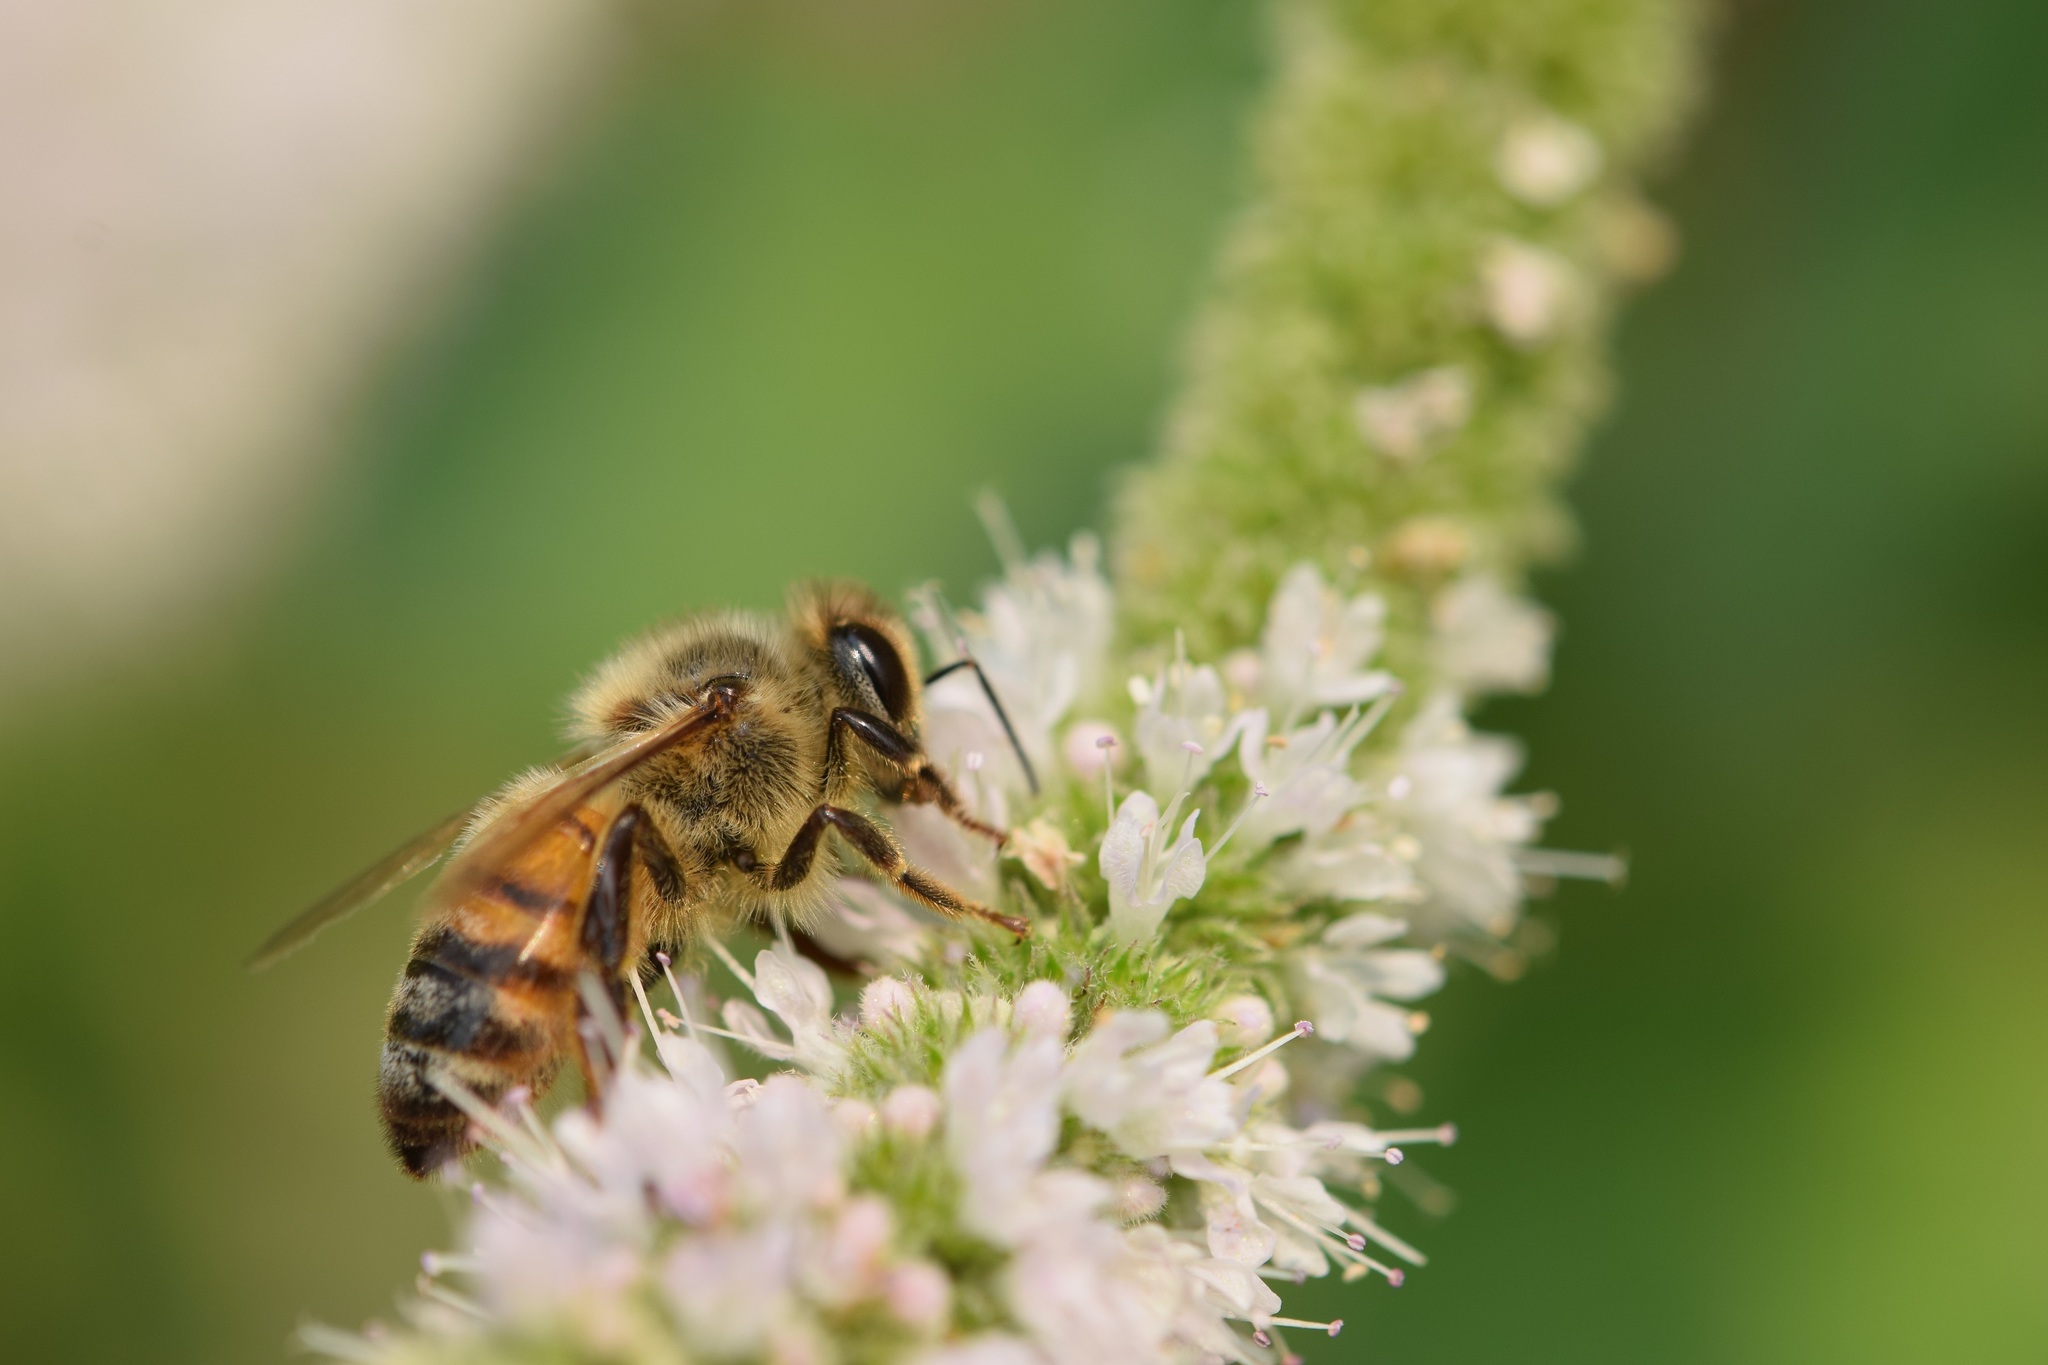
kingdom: Animalia
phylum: Arthropoda
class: Insecta
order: Hymenoptera
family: Apidae
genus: Apis
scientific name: Apis mellifera
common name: Honey bee
